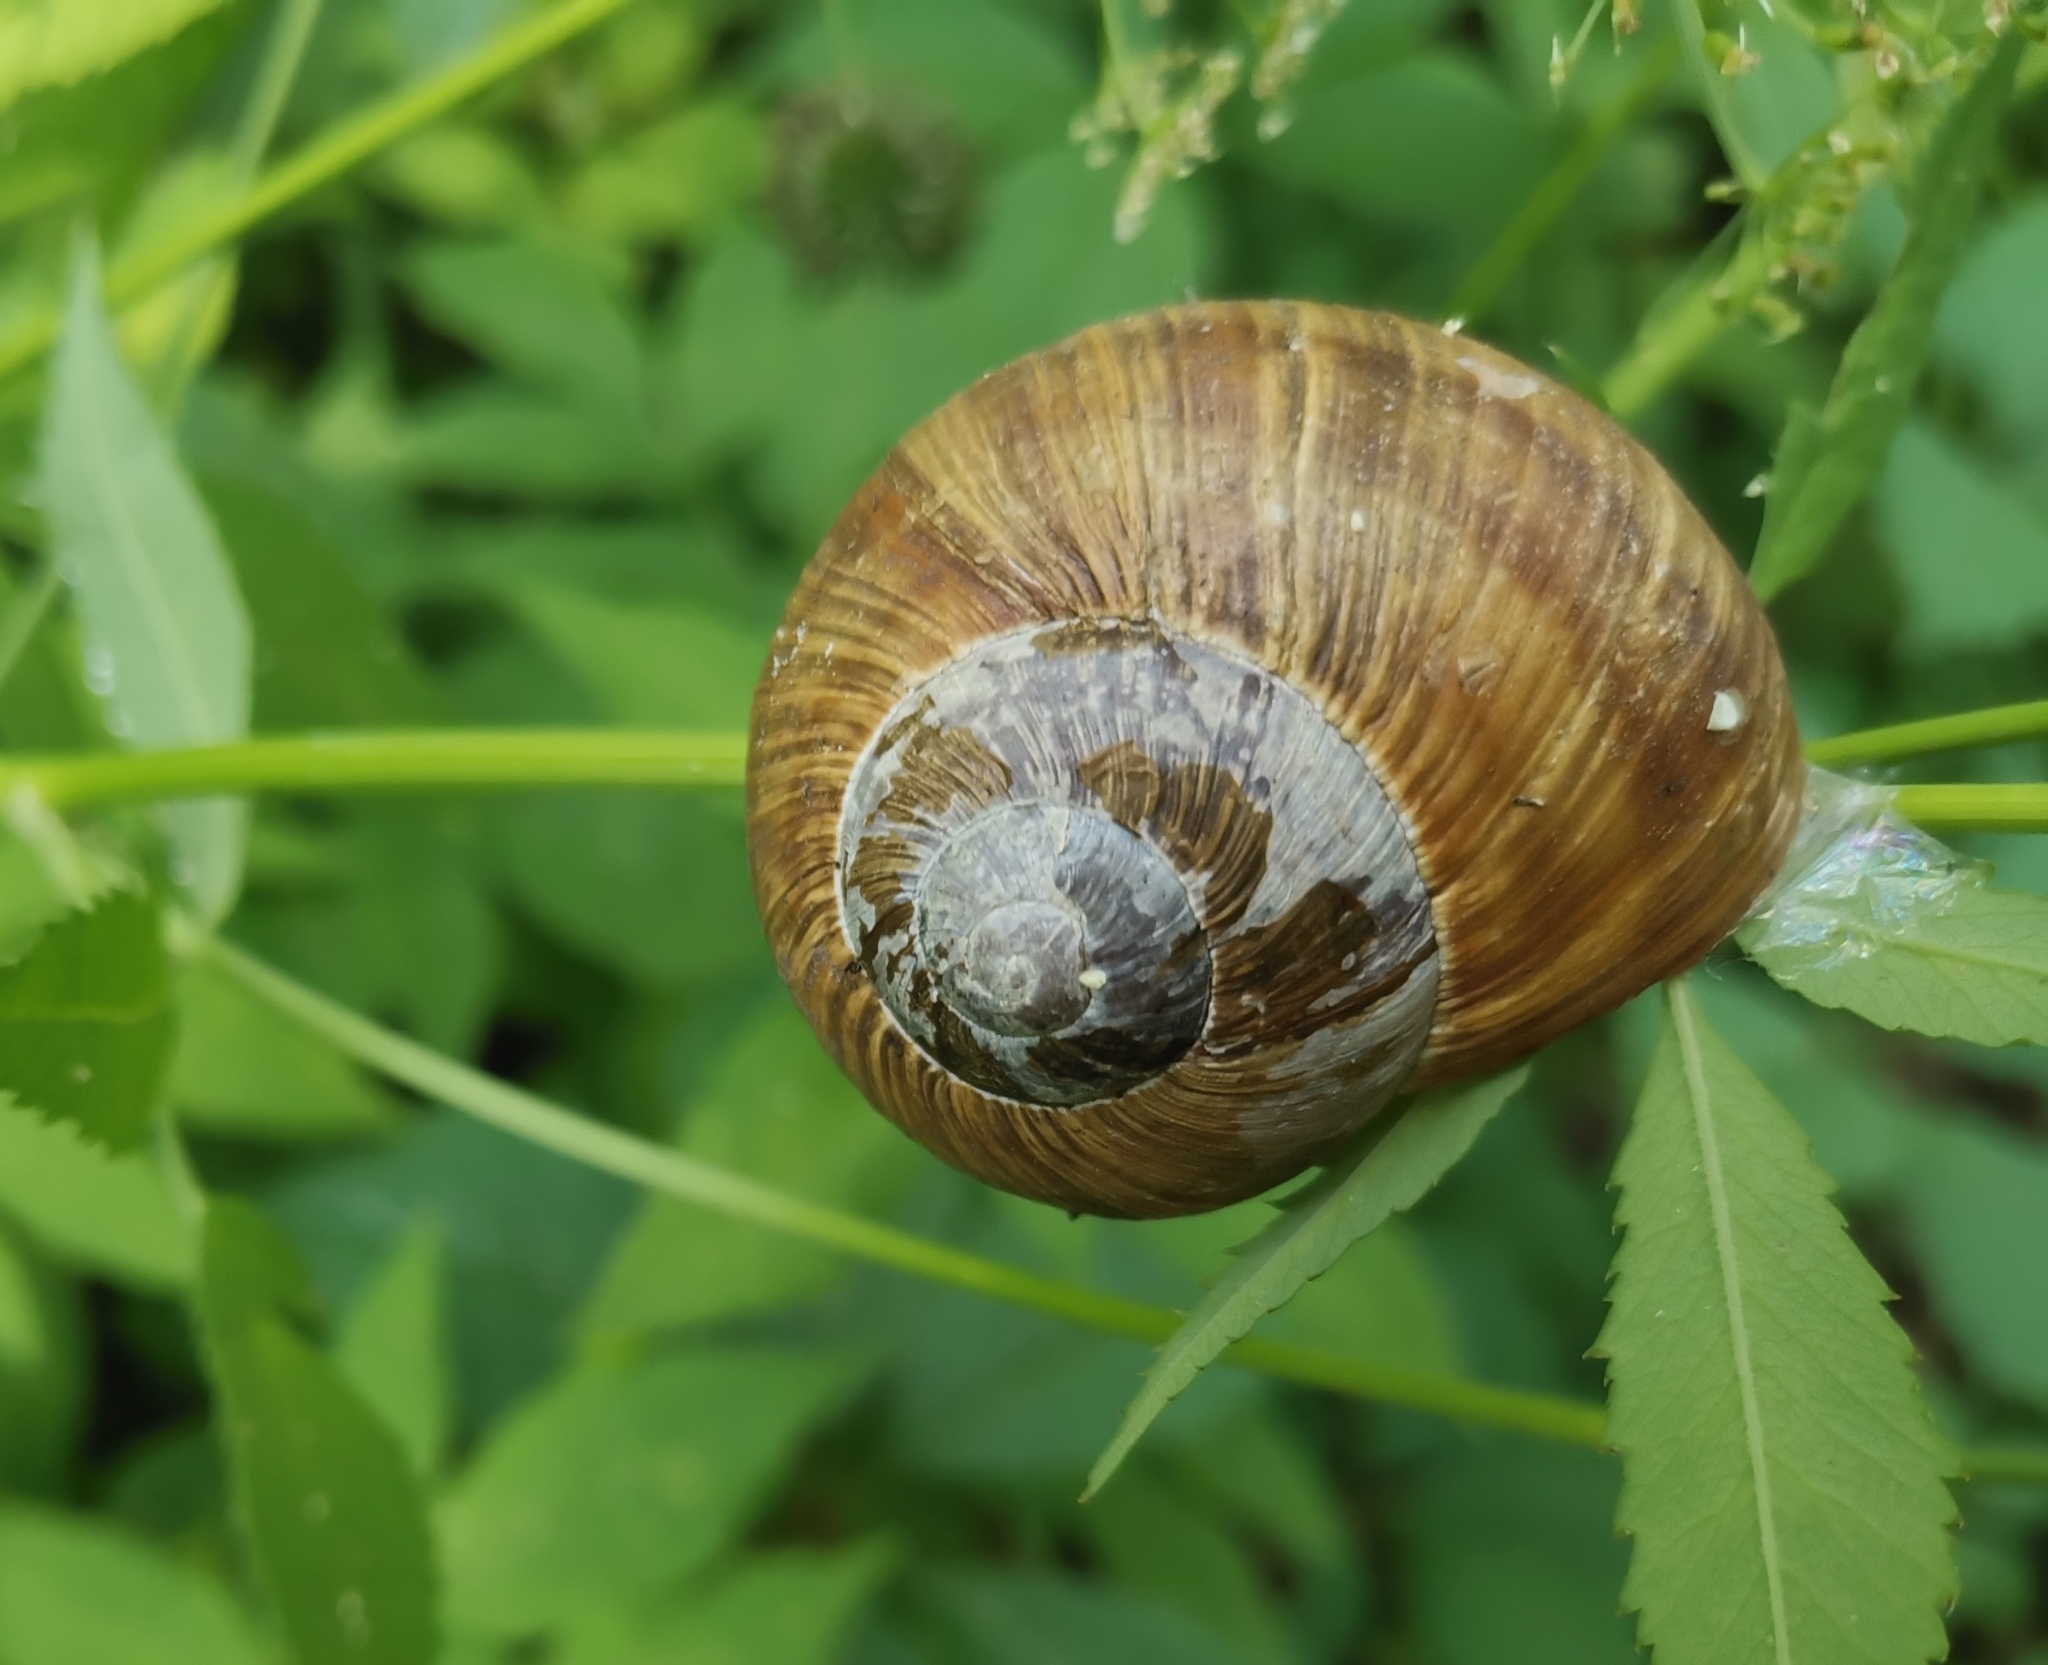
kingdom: Animalia
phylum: Mollusca
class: Gastropoda
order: Stylommatophora
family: Helicidae
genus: Helix
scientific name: Helix pomatia
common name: Roman snail
